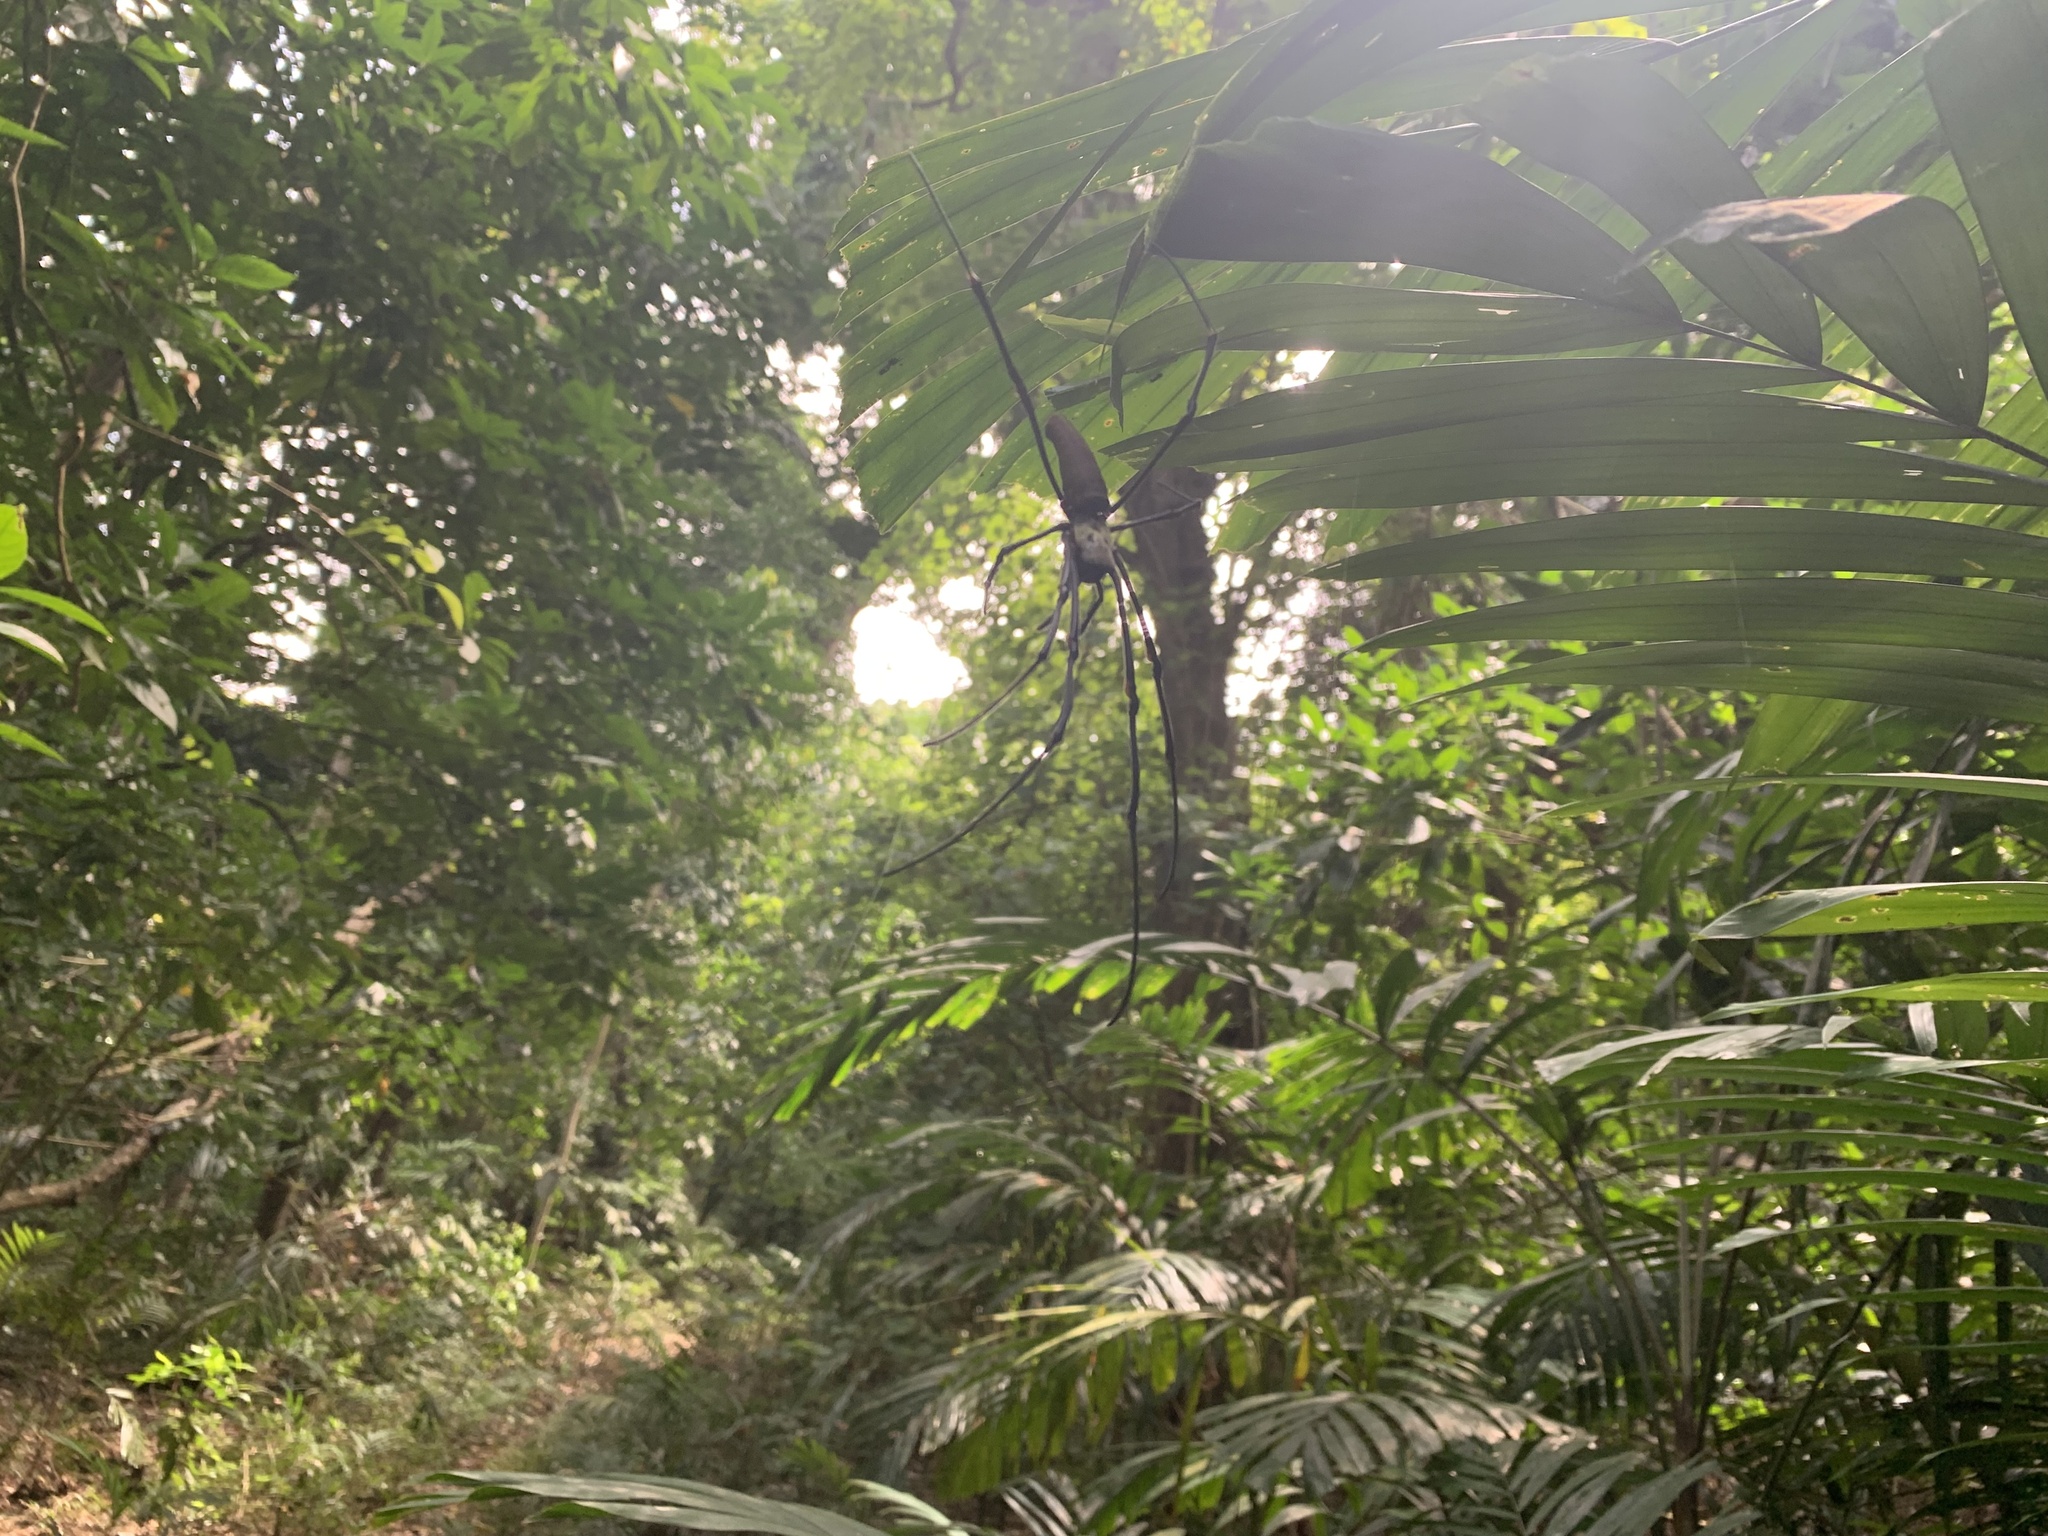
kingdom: Animalia
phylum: Arthropoda
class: Arachnida
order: Araneae
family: Araneidae
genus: Nephila
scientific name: Nephila pilipes
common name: Giant golden orb weaver
